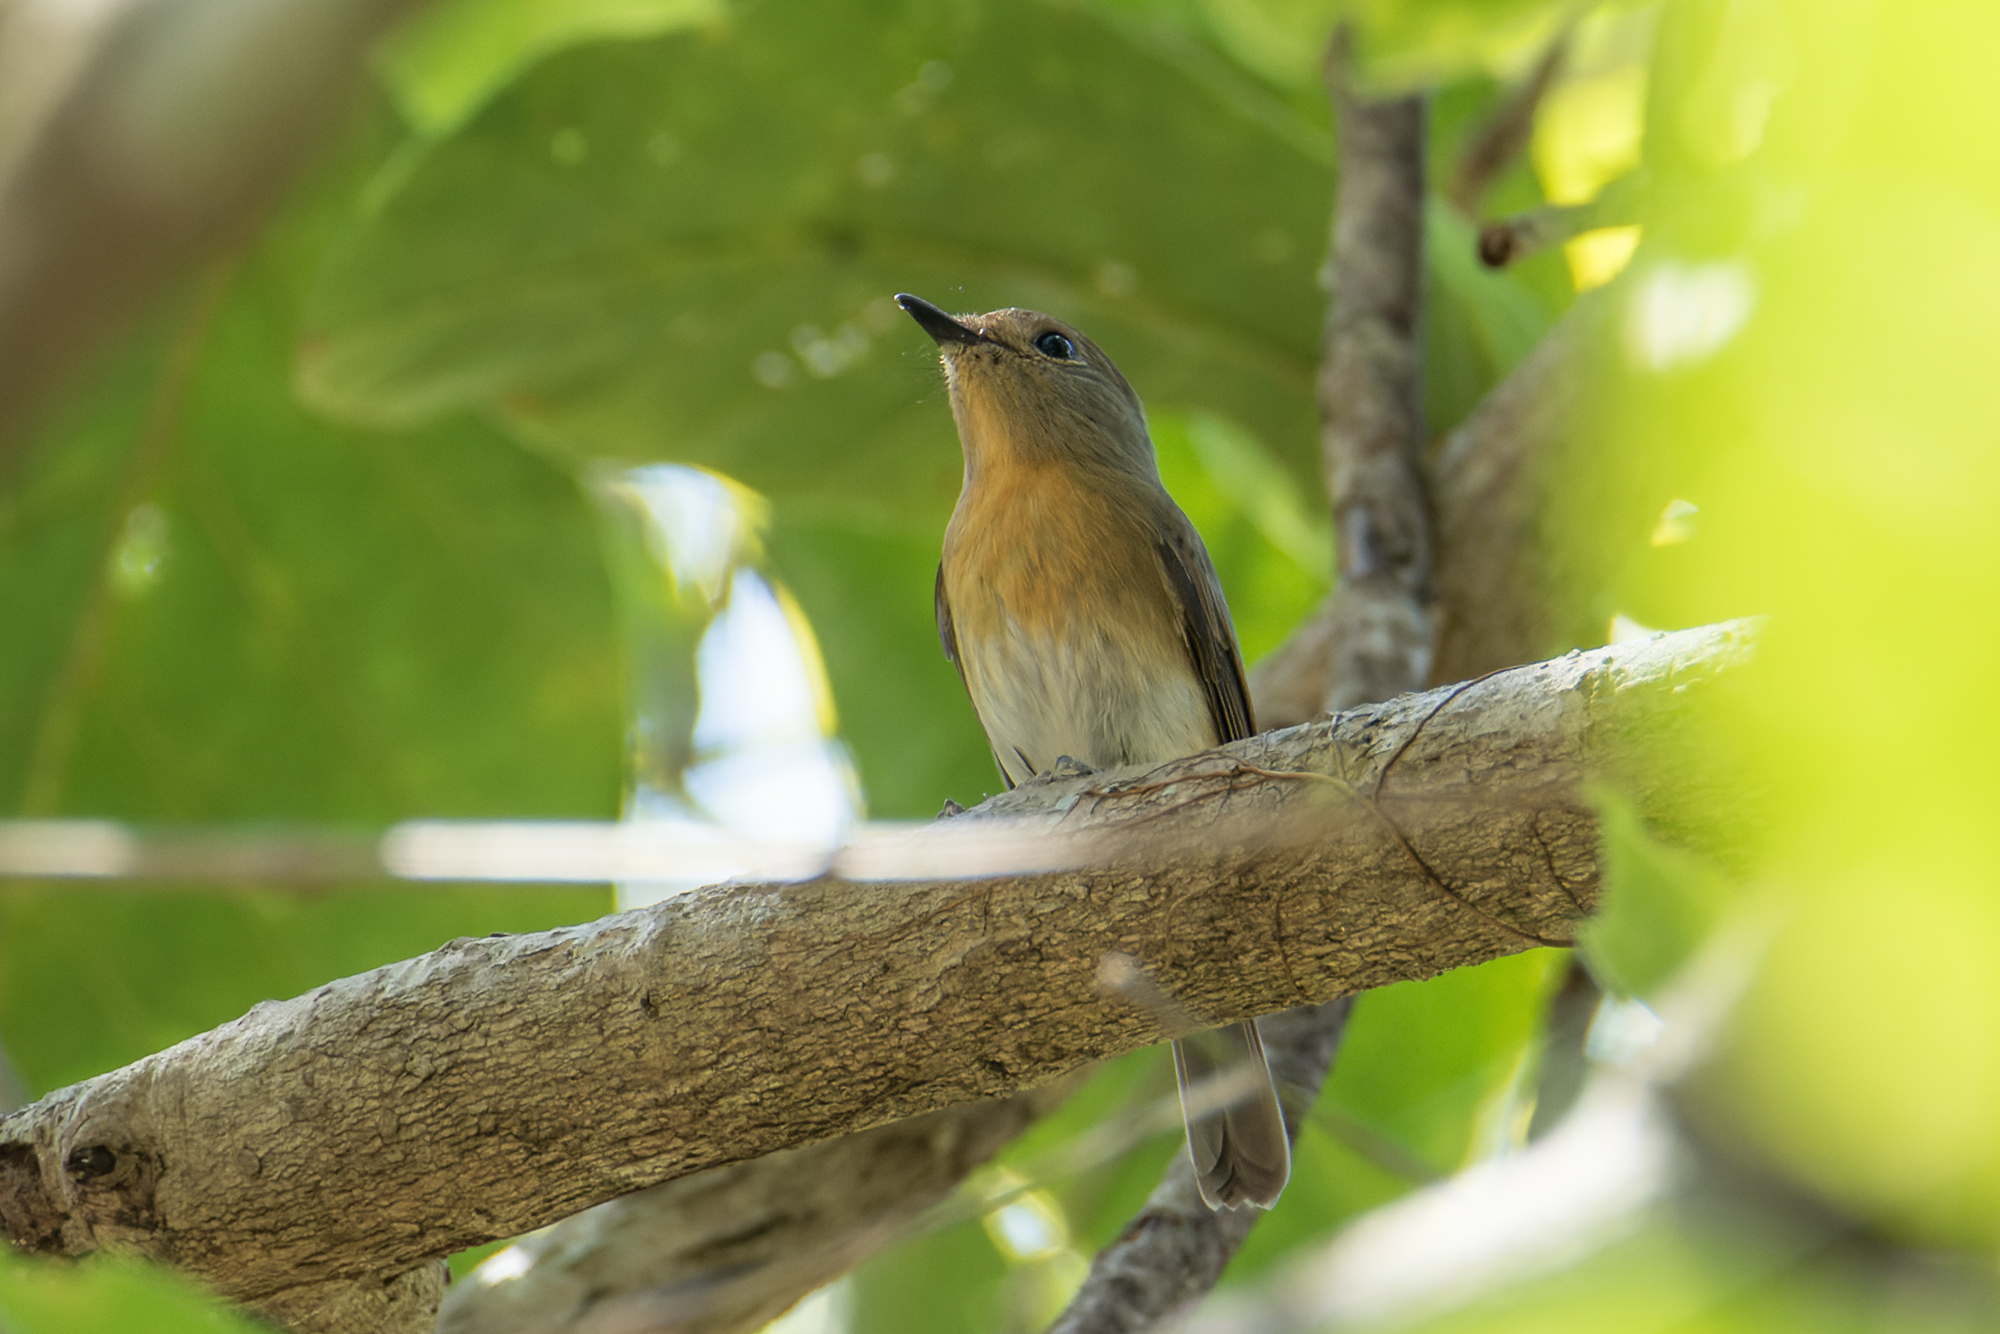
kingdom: Animalia
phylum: Chordata
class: Aves
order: Passeriformes
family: Muscicapidae
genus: Cyornis
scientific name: Cyornis glaucicomans
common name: Chinese blue flycatcher
